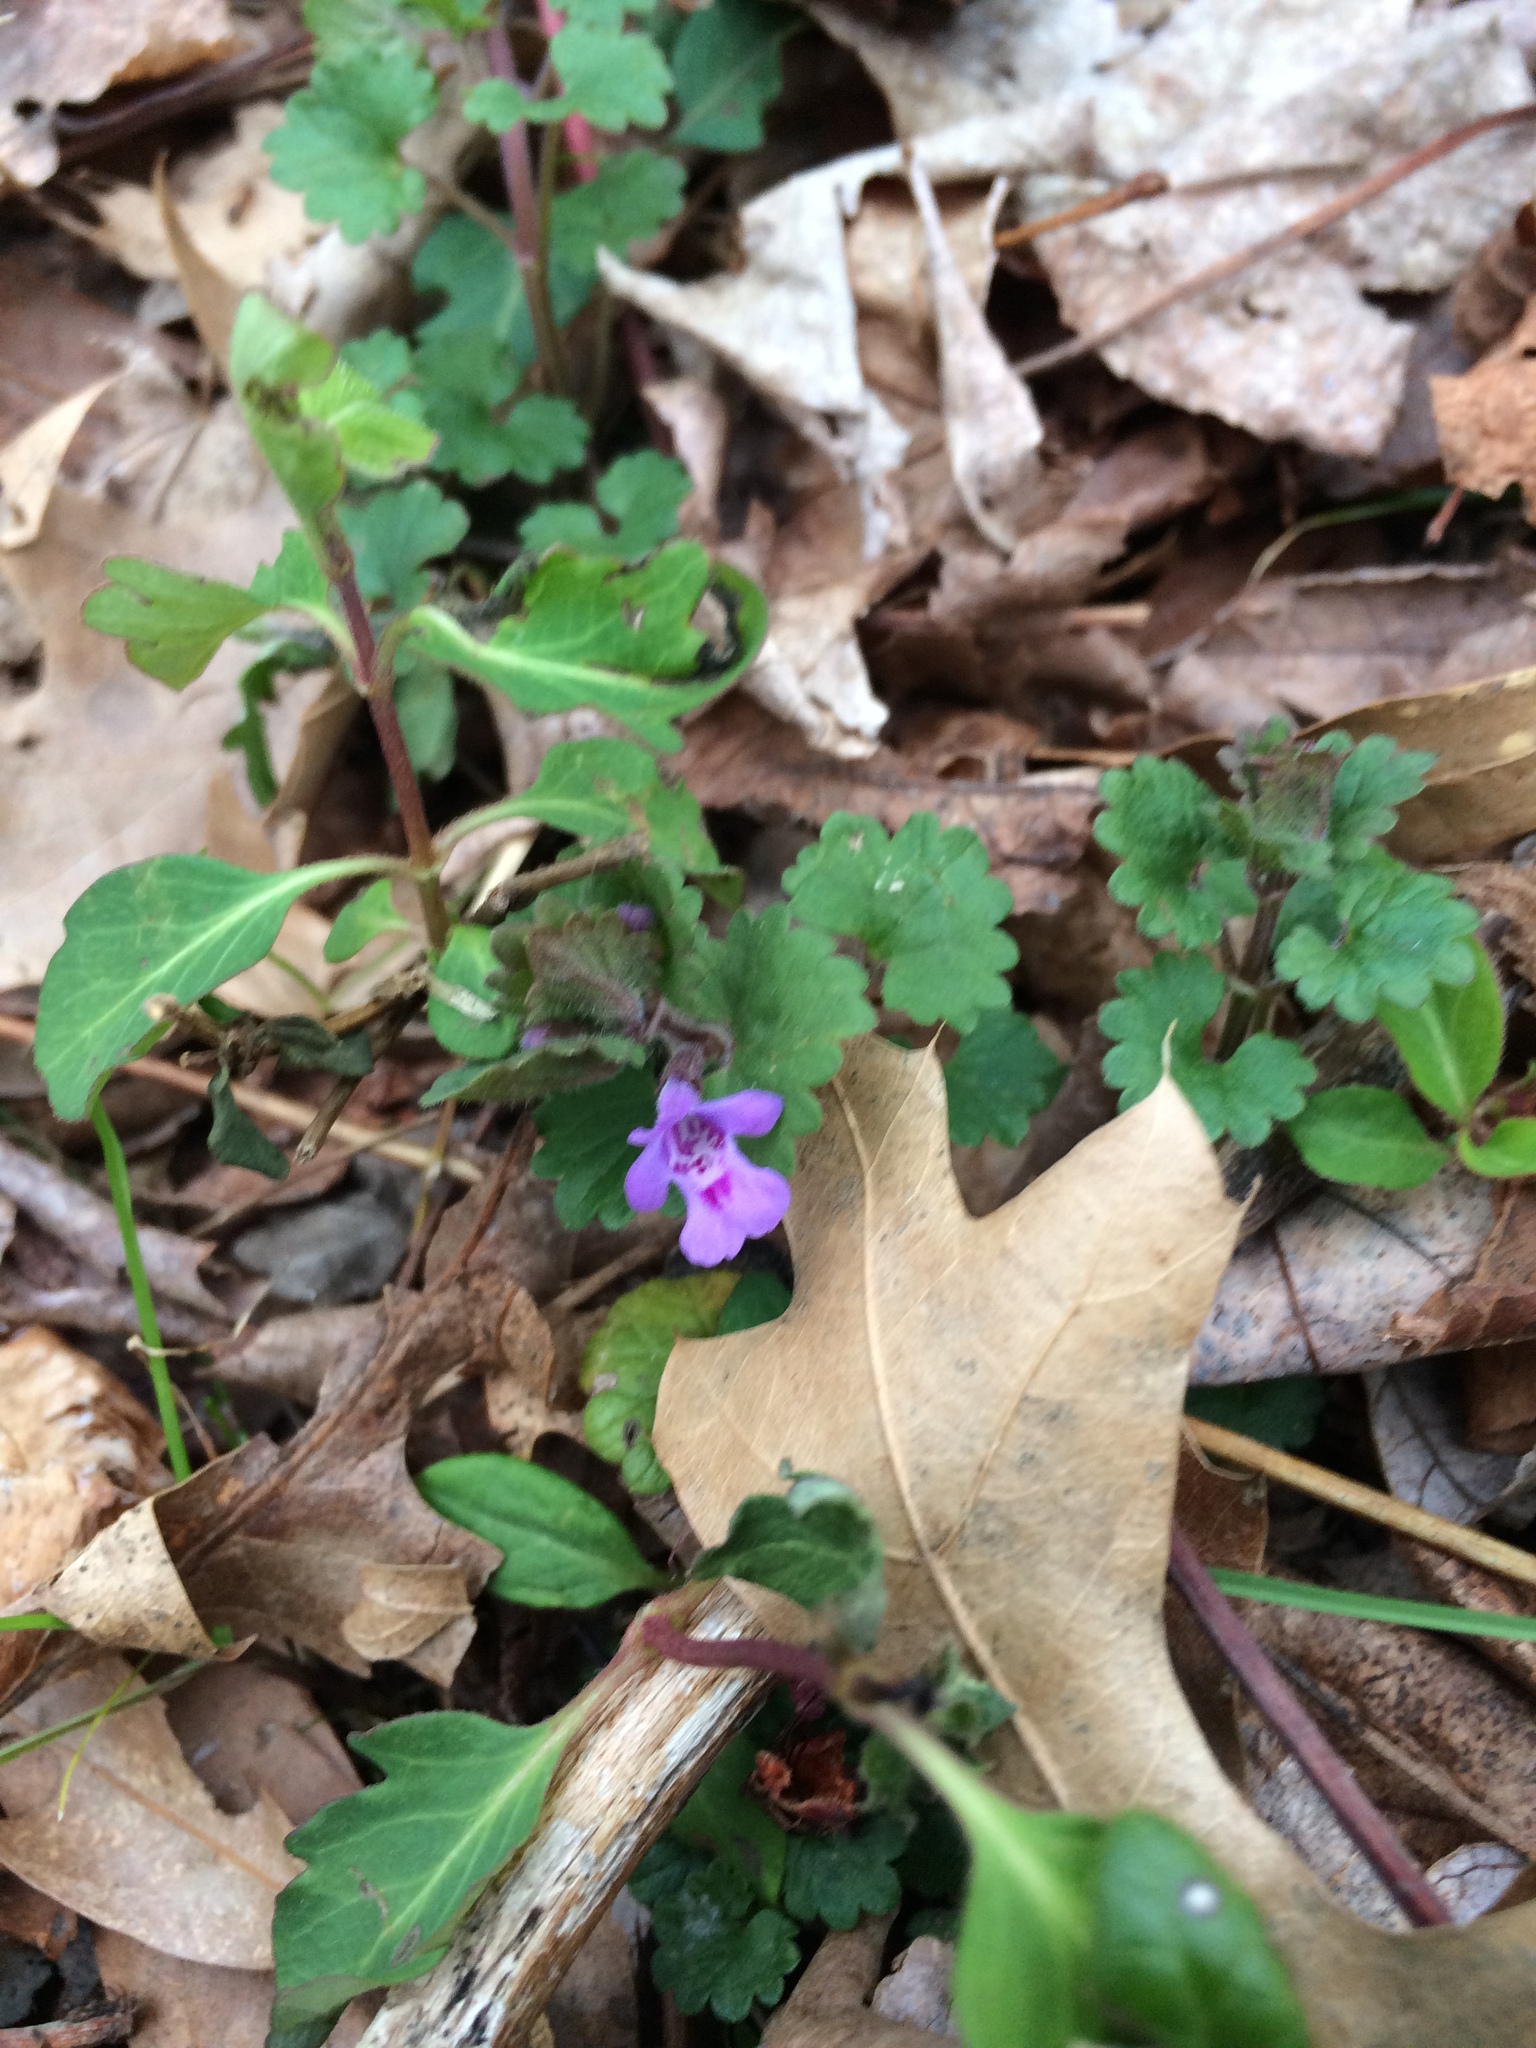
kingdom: Plantae
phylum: Tracheophyta
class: Magnoliopsida
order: Lamiales
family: Lamiaceae
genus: Glechoma
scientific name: Glechoma hederacea
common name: Ground ivy
